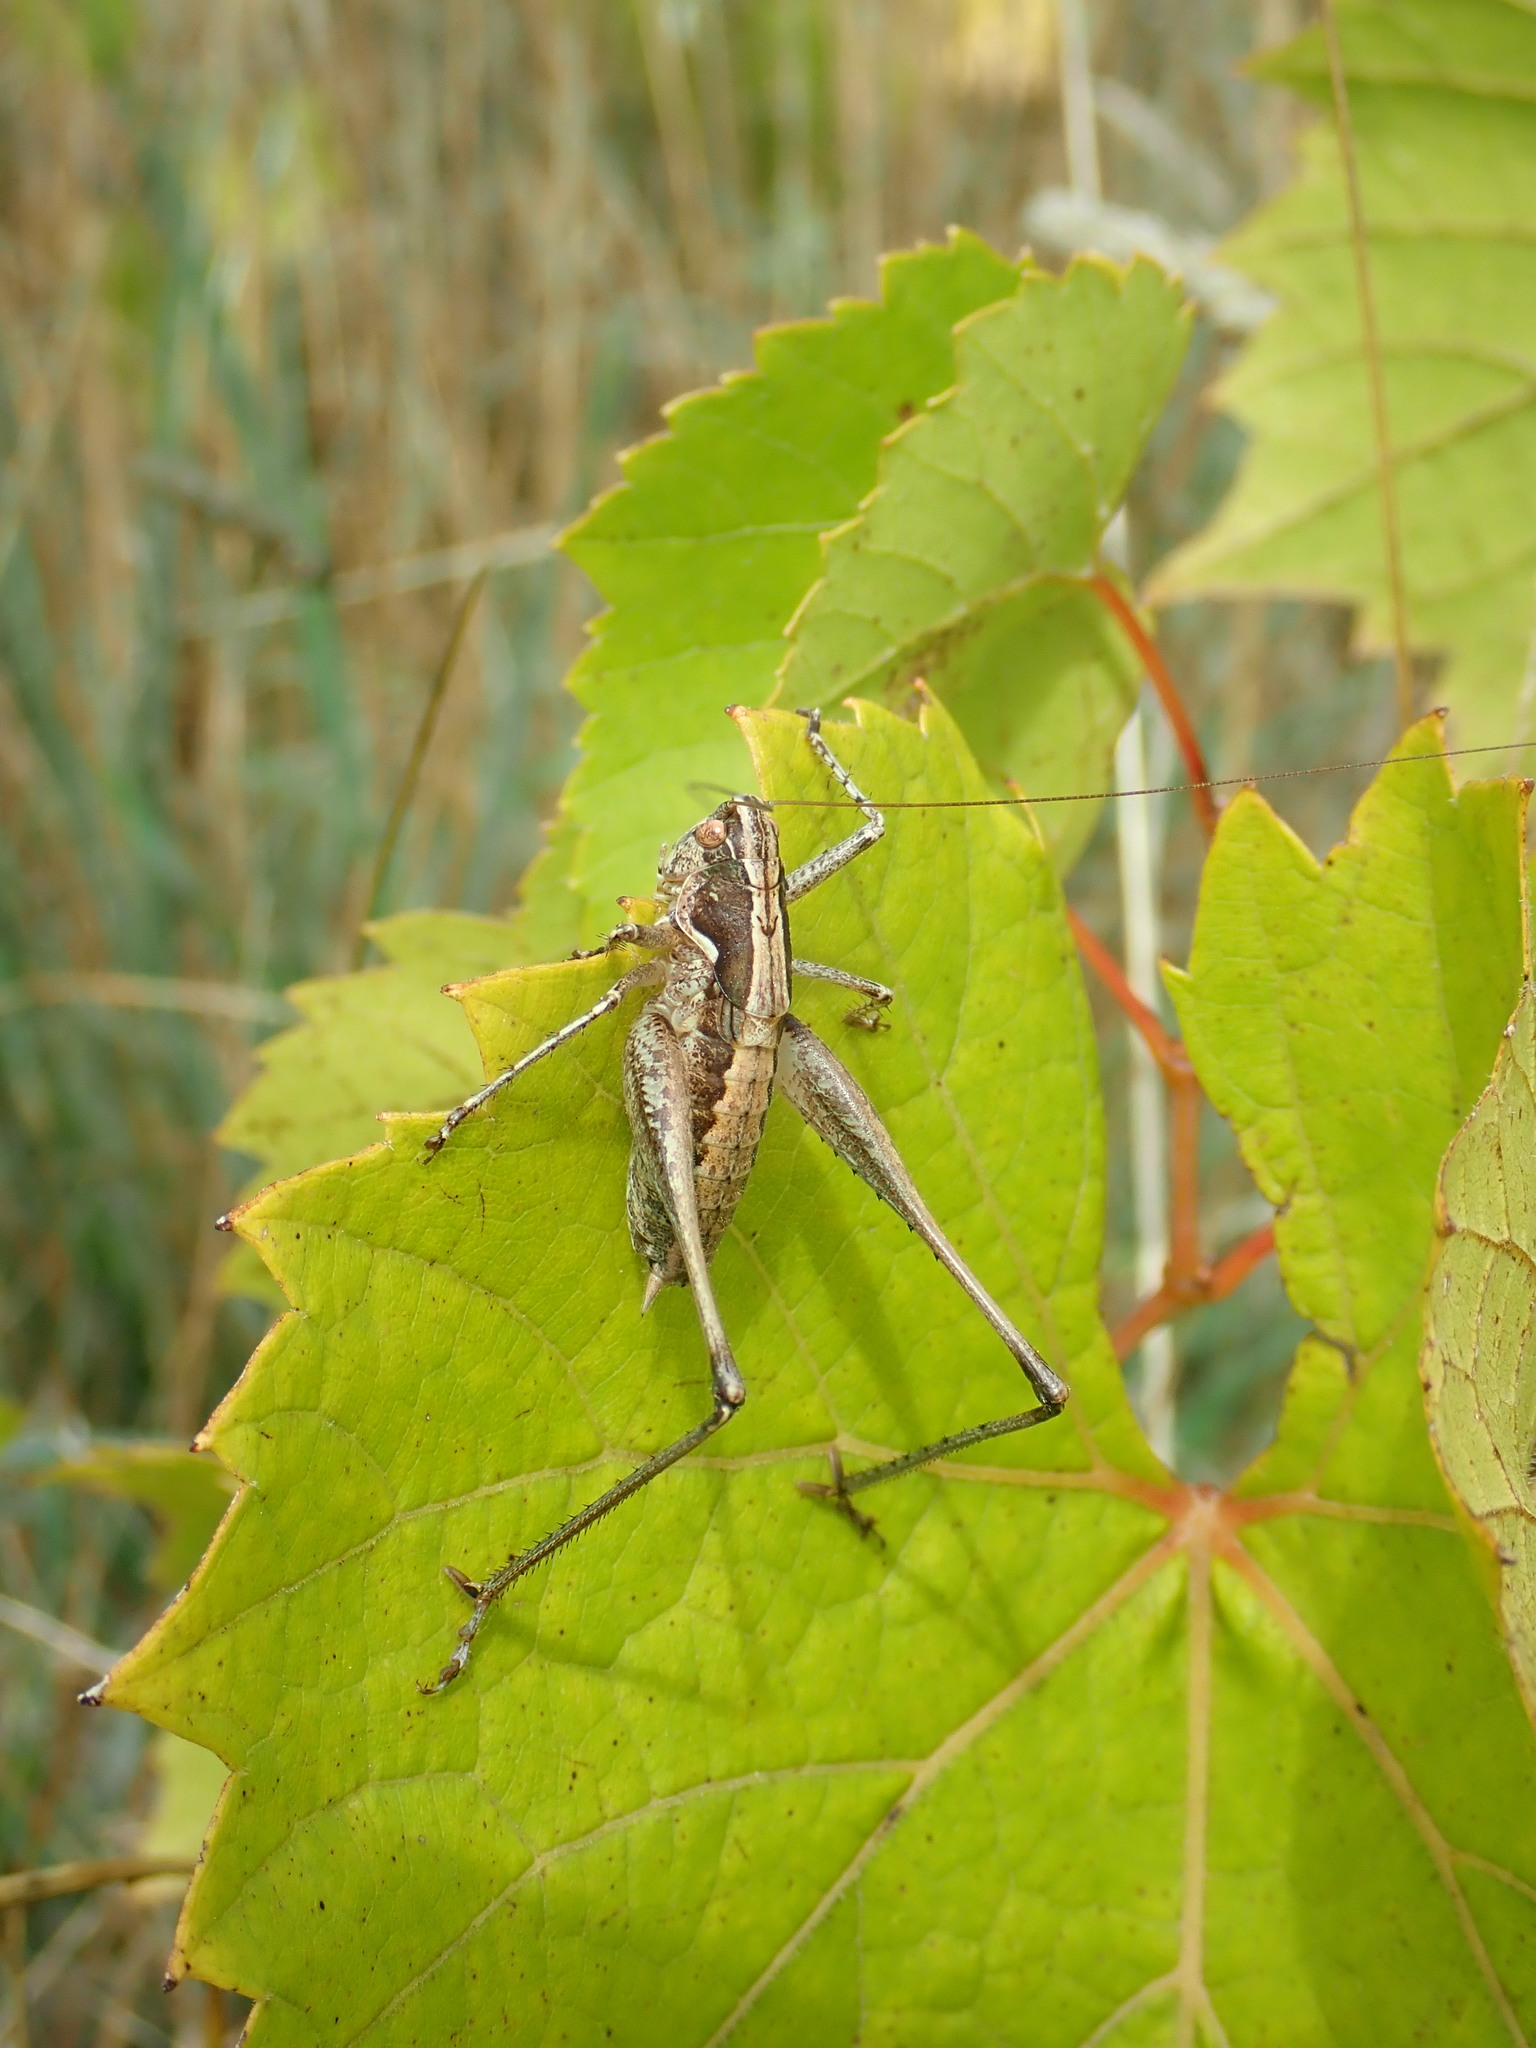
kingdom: Animalia
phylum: Arthropoda
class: Insecta
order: Orthoptera
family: Tettigoniidae
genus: Rhacocleis
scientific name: Rhacocleis germanica
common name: Mediterranean bush-cricket
